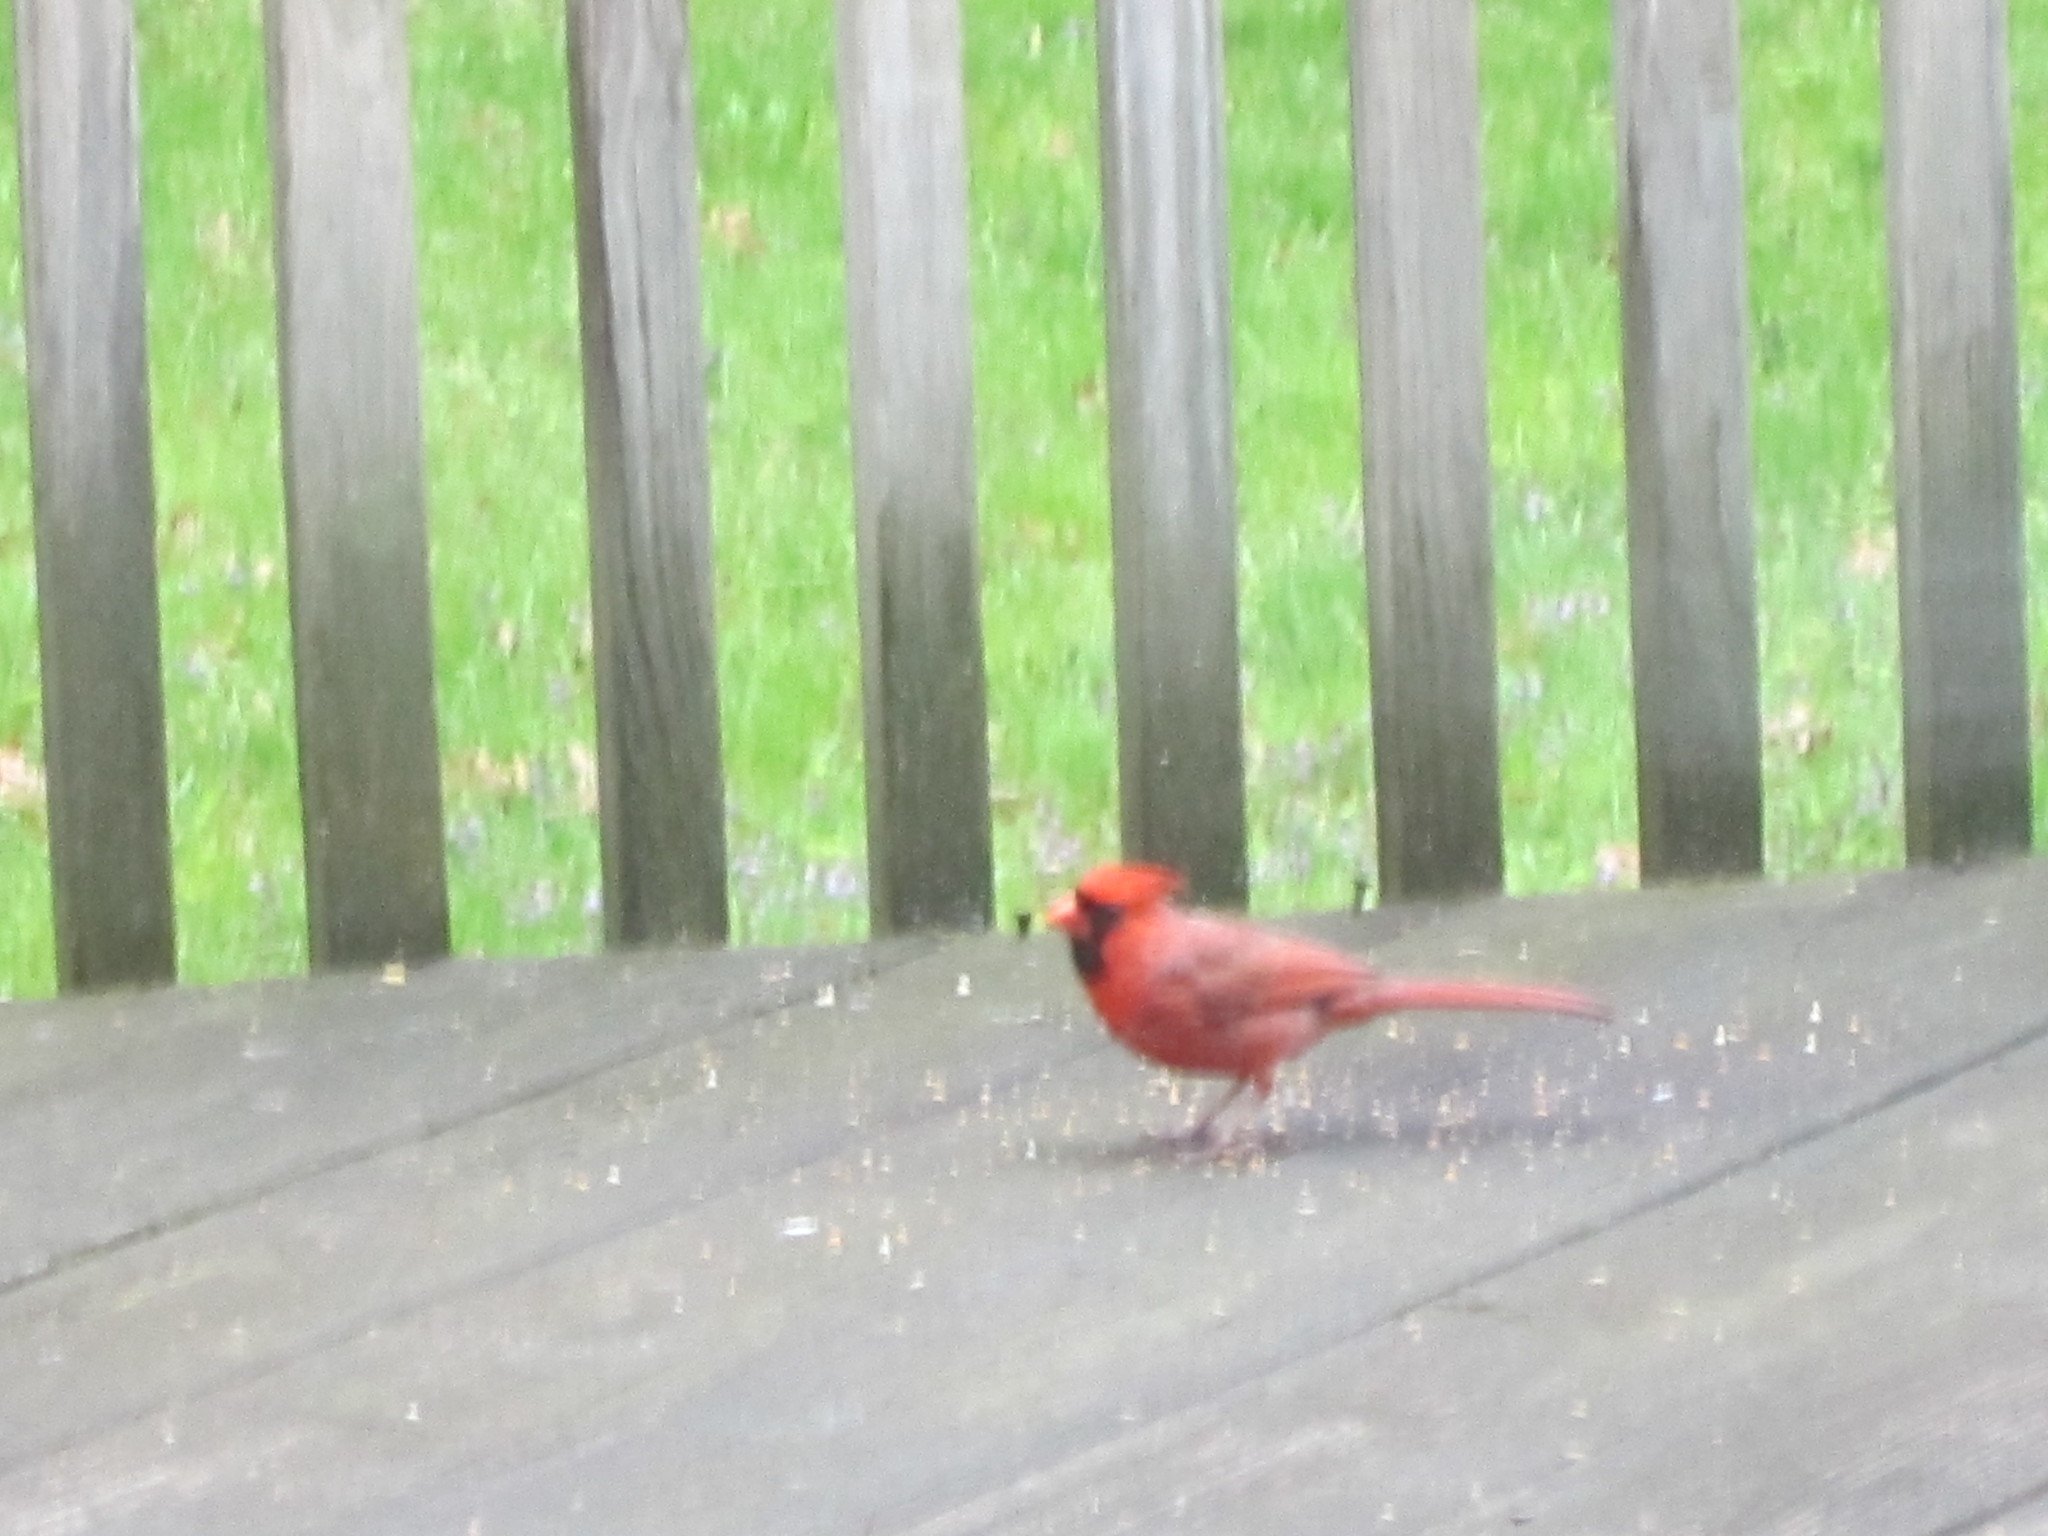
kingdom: Animalia
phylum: Chordata
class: Aves
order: Passeriformes
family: Cardinalidae
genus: Cardinalis
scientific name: Cardinalis cardinalis
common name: Northern cardinal
